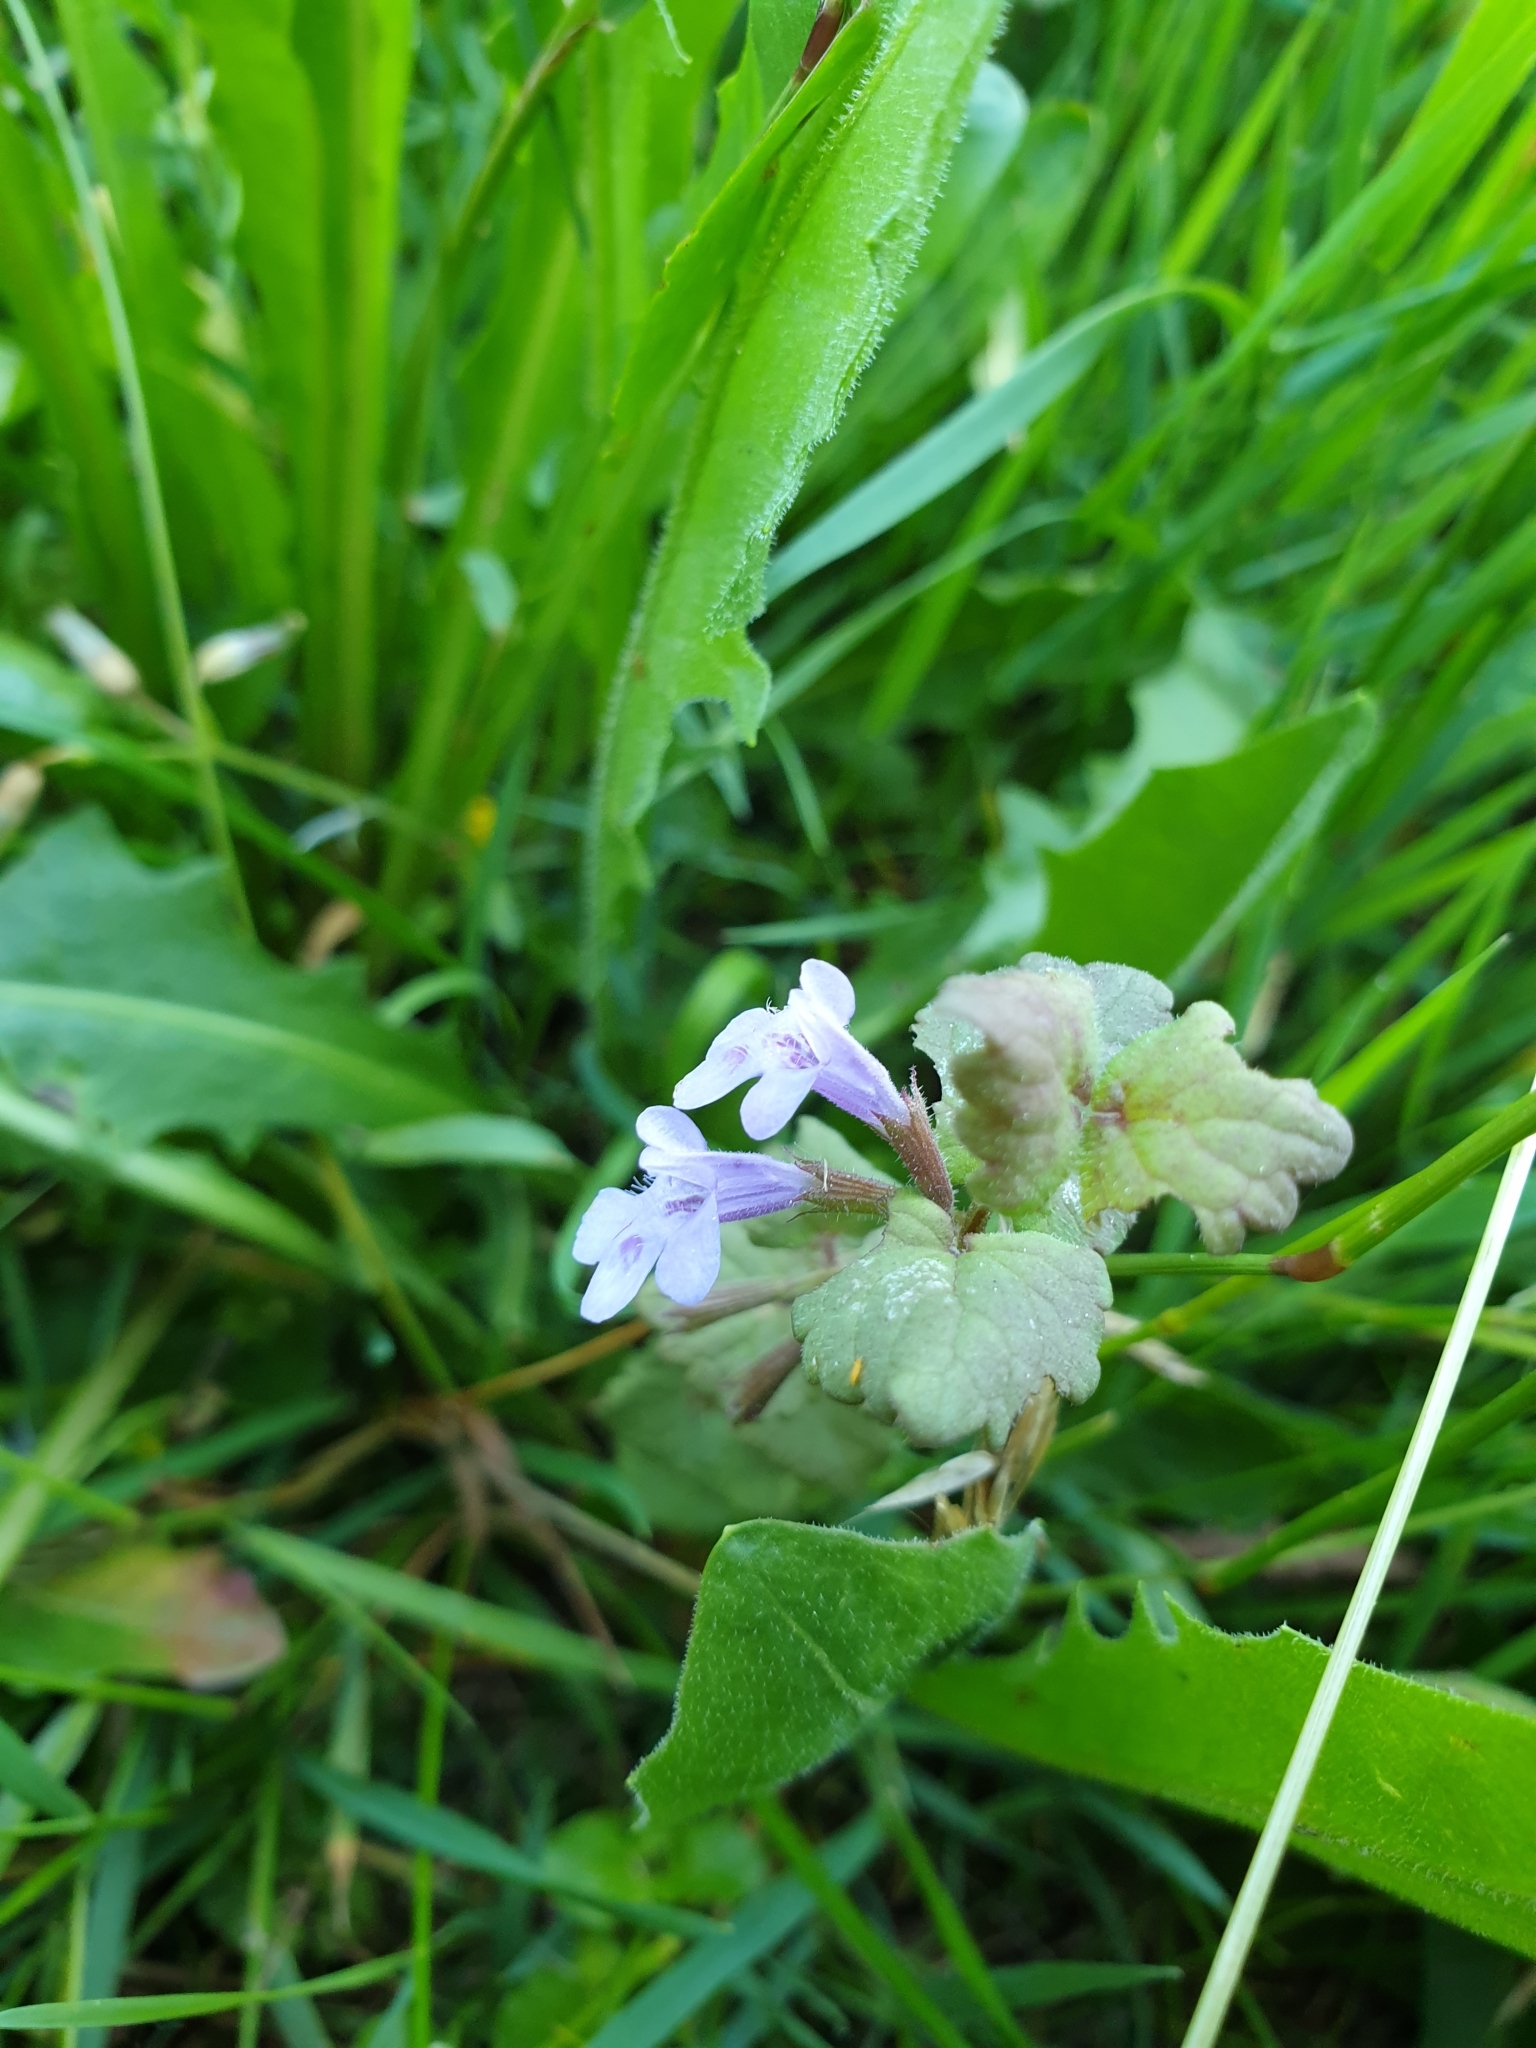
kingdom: Plantae
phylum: Tracheophyta
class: Magnoliopsida
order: Lamiales
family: Lamiaceae
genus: Glechoma
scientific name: Glechoma hederacea
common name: Ground ivy
